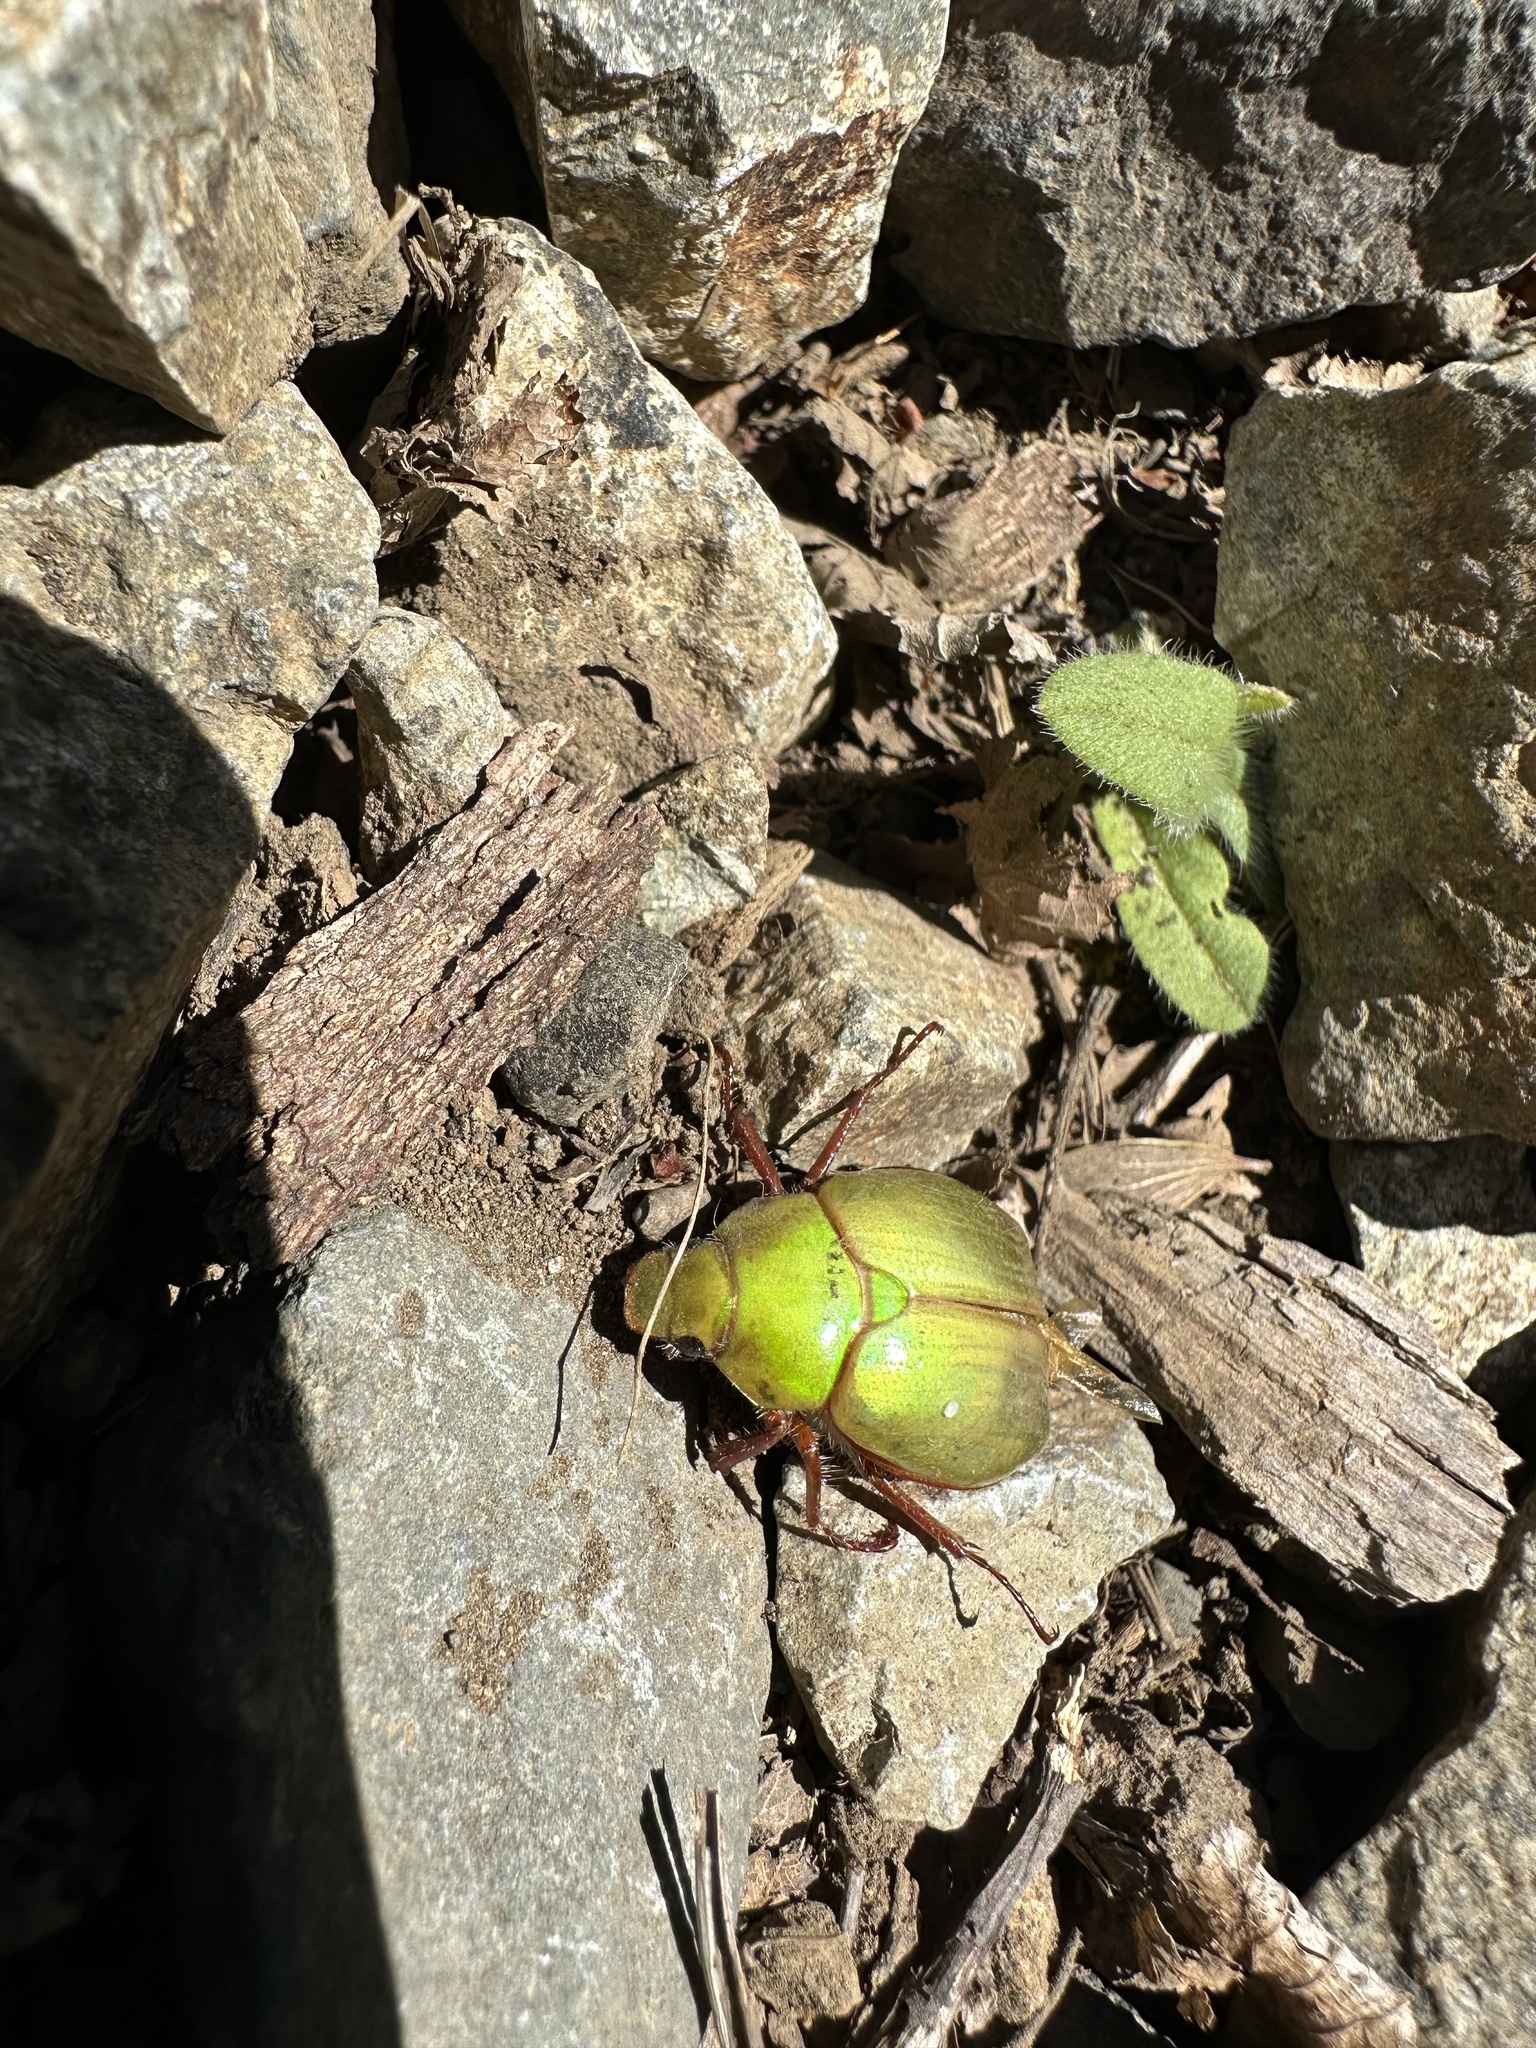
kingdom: Animalia
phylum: Arthropoda
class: Insecta
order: Coleoptera
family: Scarabaeidae
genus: Modialis
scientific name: Modialis prasinella
